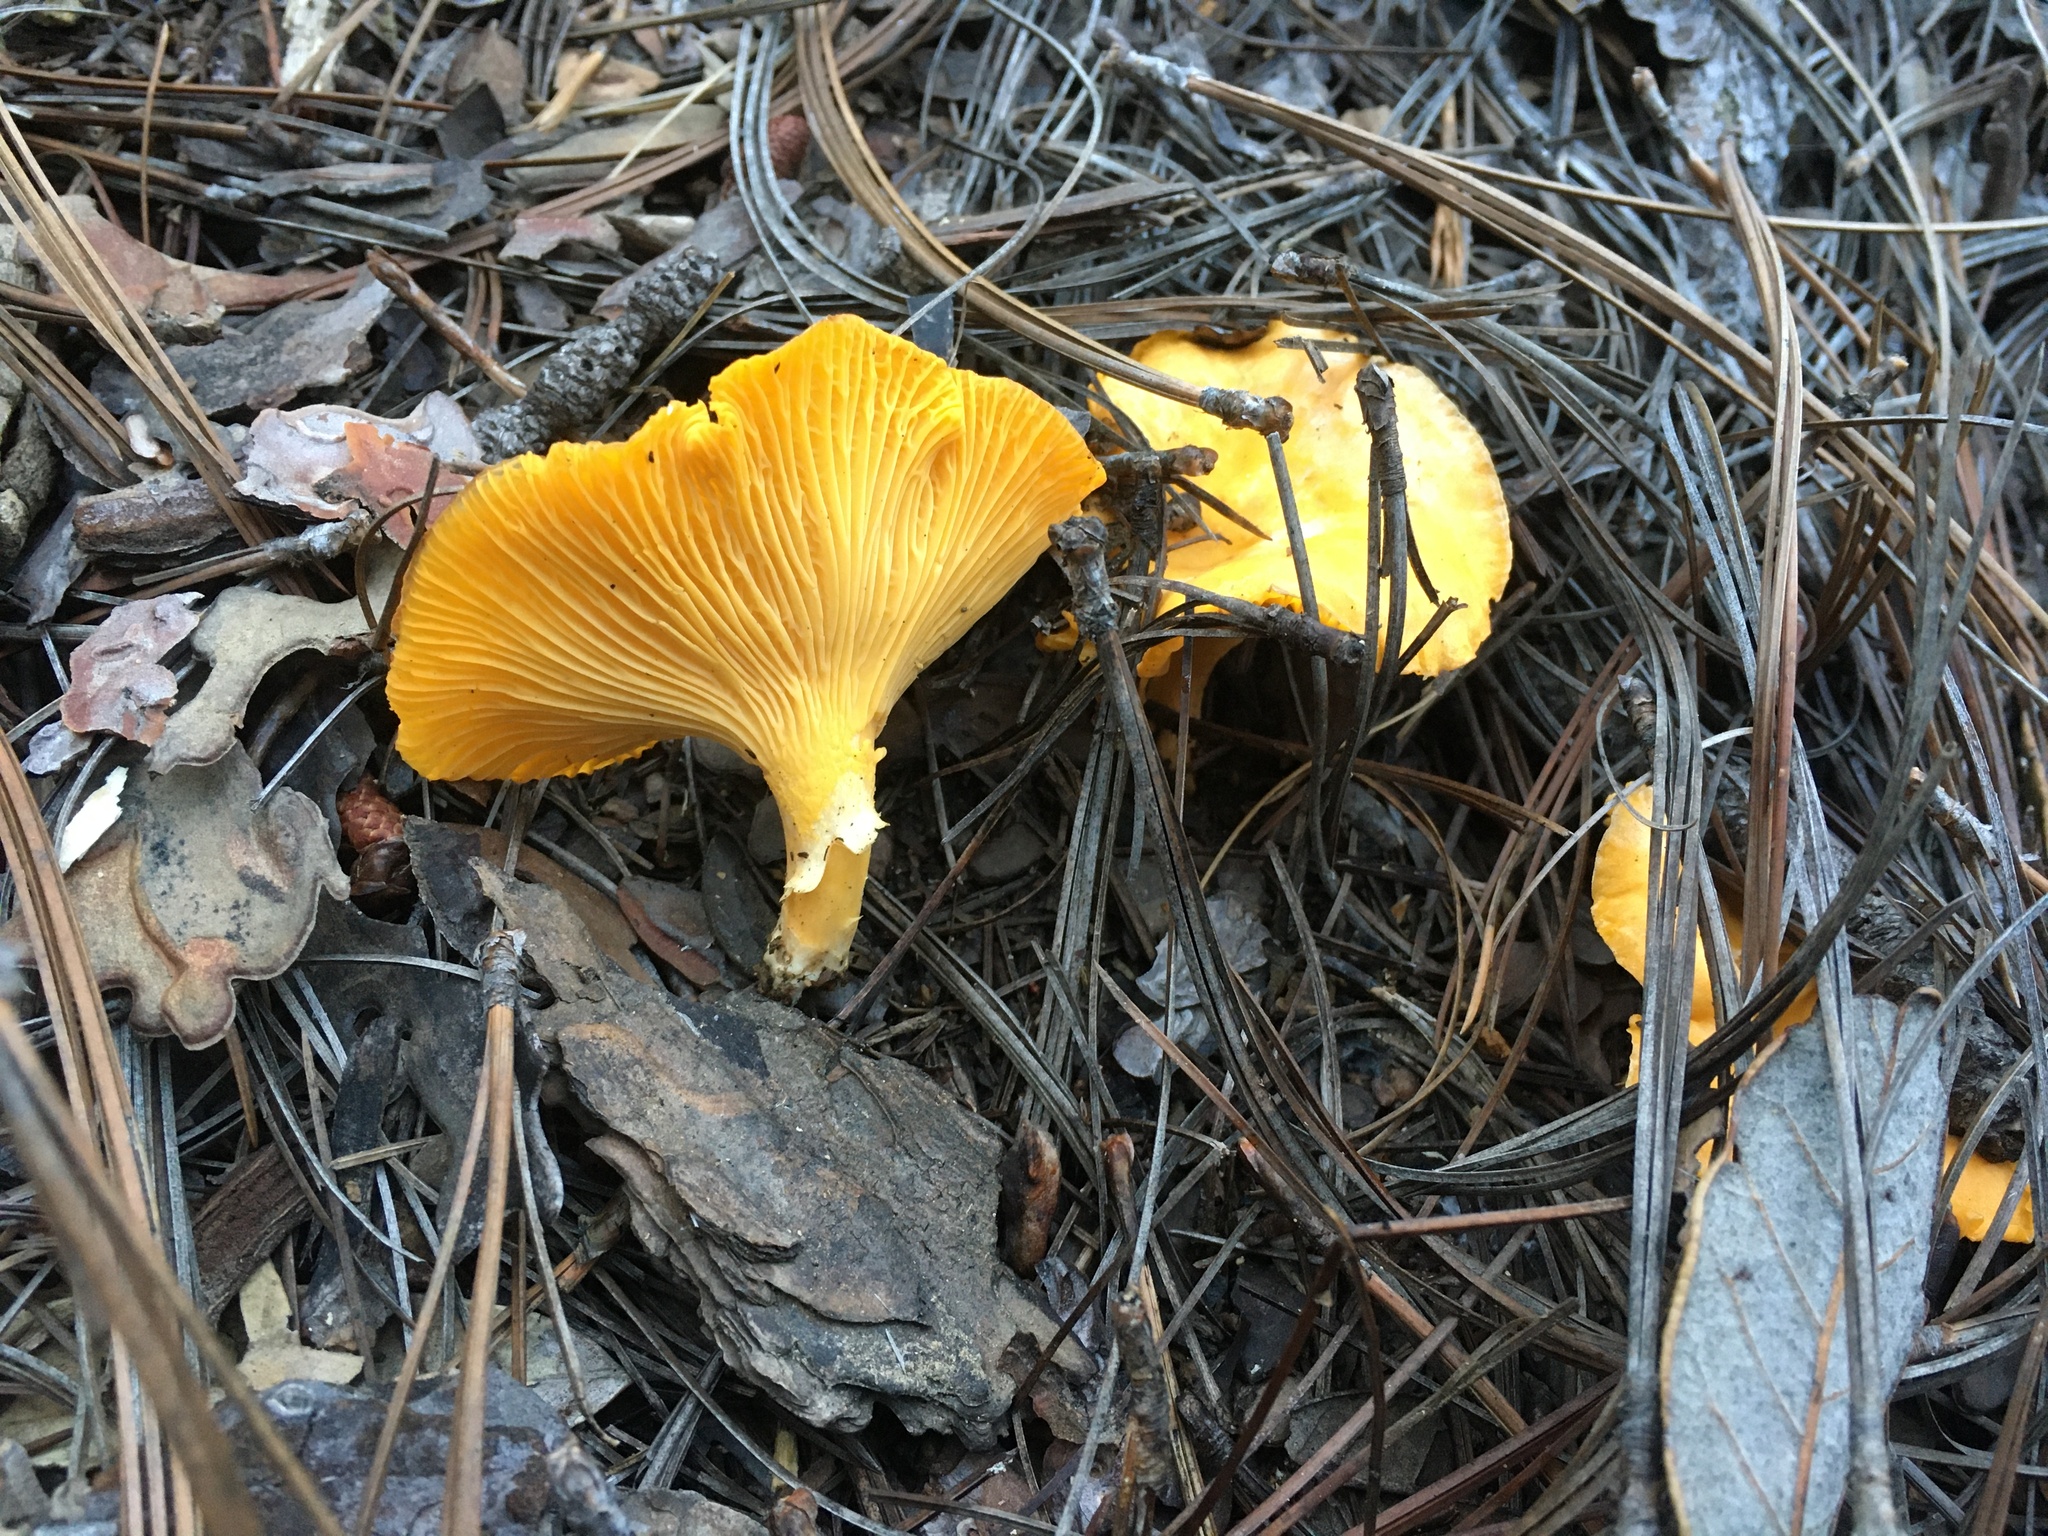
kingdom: Fungi
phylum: Basidiomycota
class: Agaricomycetes
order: Cantharellales
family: Hydnaceae
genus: Cantharellus
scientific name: Cantharellus roseocanus
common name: Rainbow chanterelle
